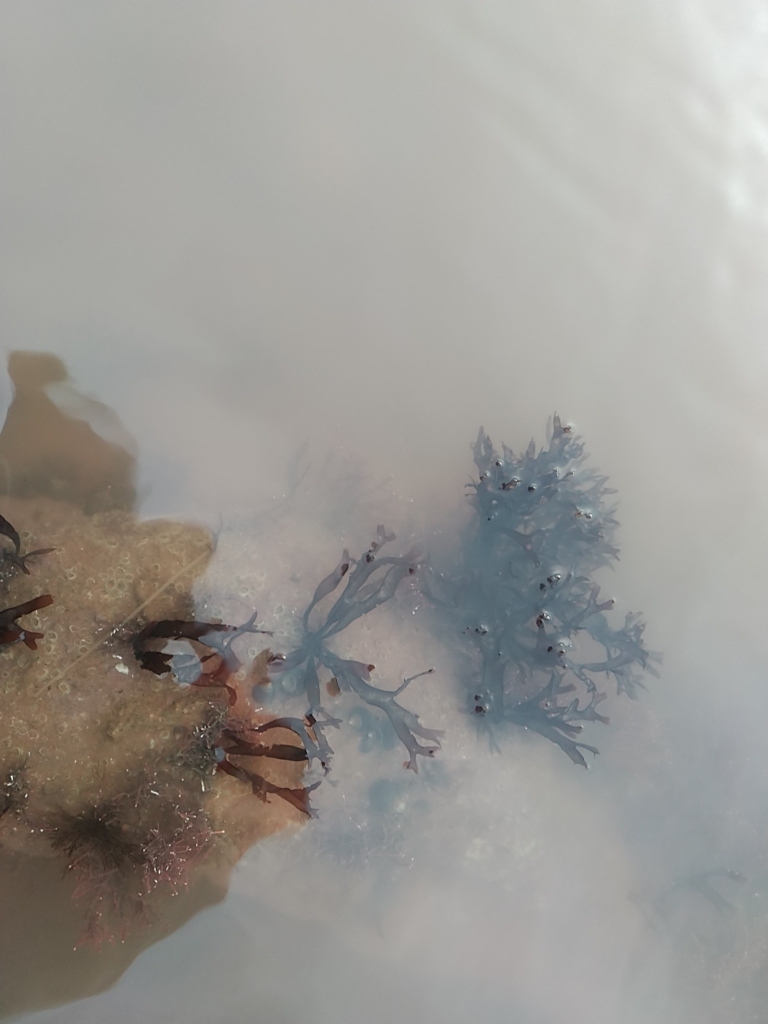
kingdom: Plantae
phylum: Rhodophyta
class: Florideophyceae
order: Gigartinales
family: Gigartinaceae
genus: Chondrus
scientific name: Chondrus crispus
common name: Carrageen
